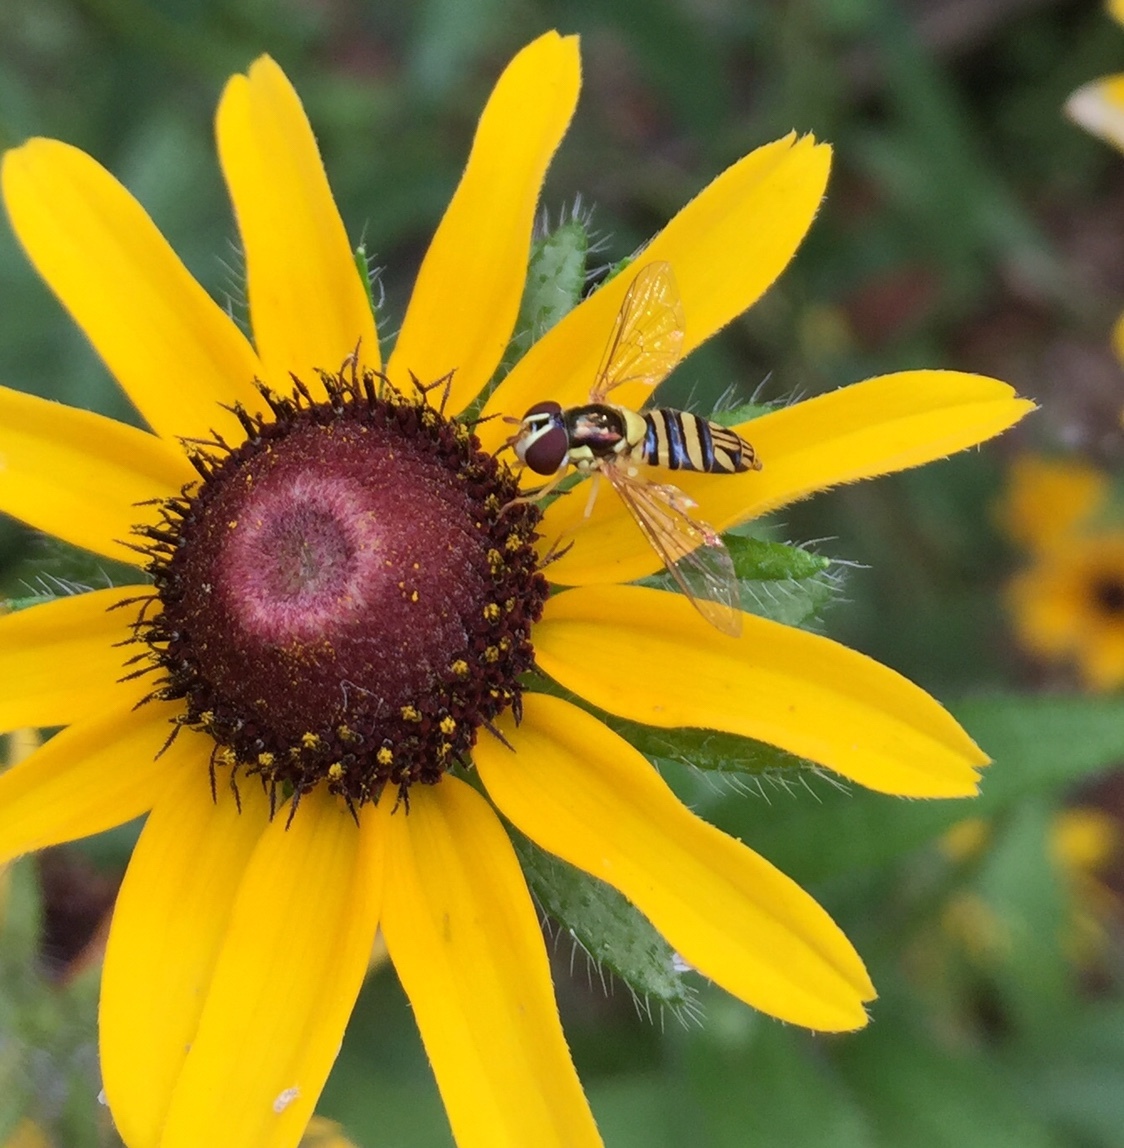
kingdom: Animalia
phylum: Arthropoda
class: Insecta
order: Diptera
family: Syrphidae
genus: Allograpta
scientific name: Allograpta obliqua
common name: Common oblique syrphid
